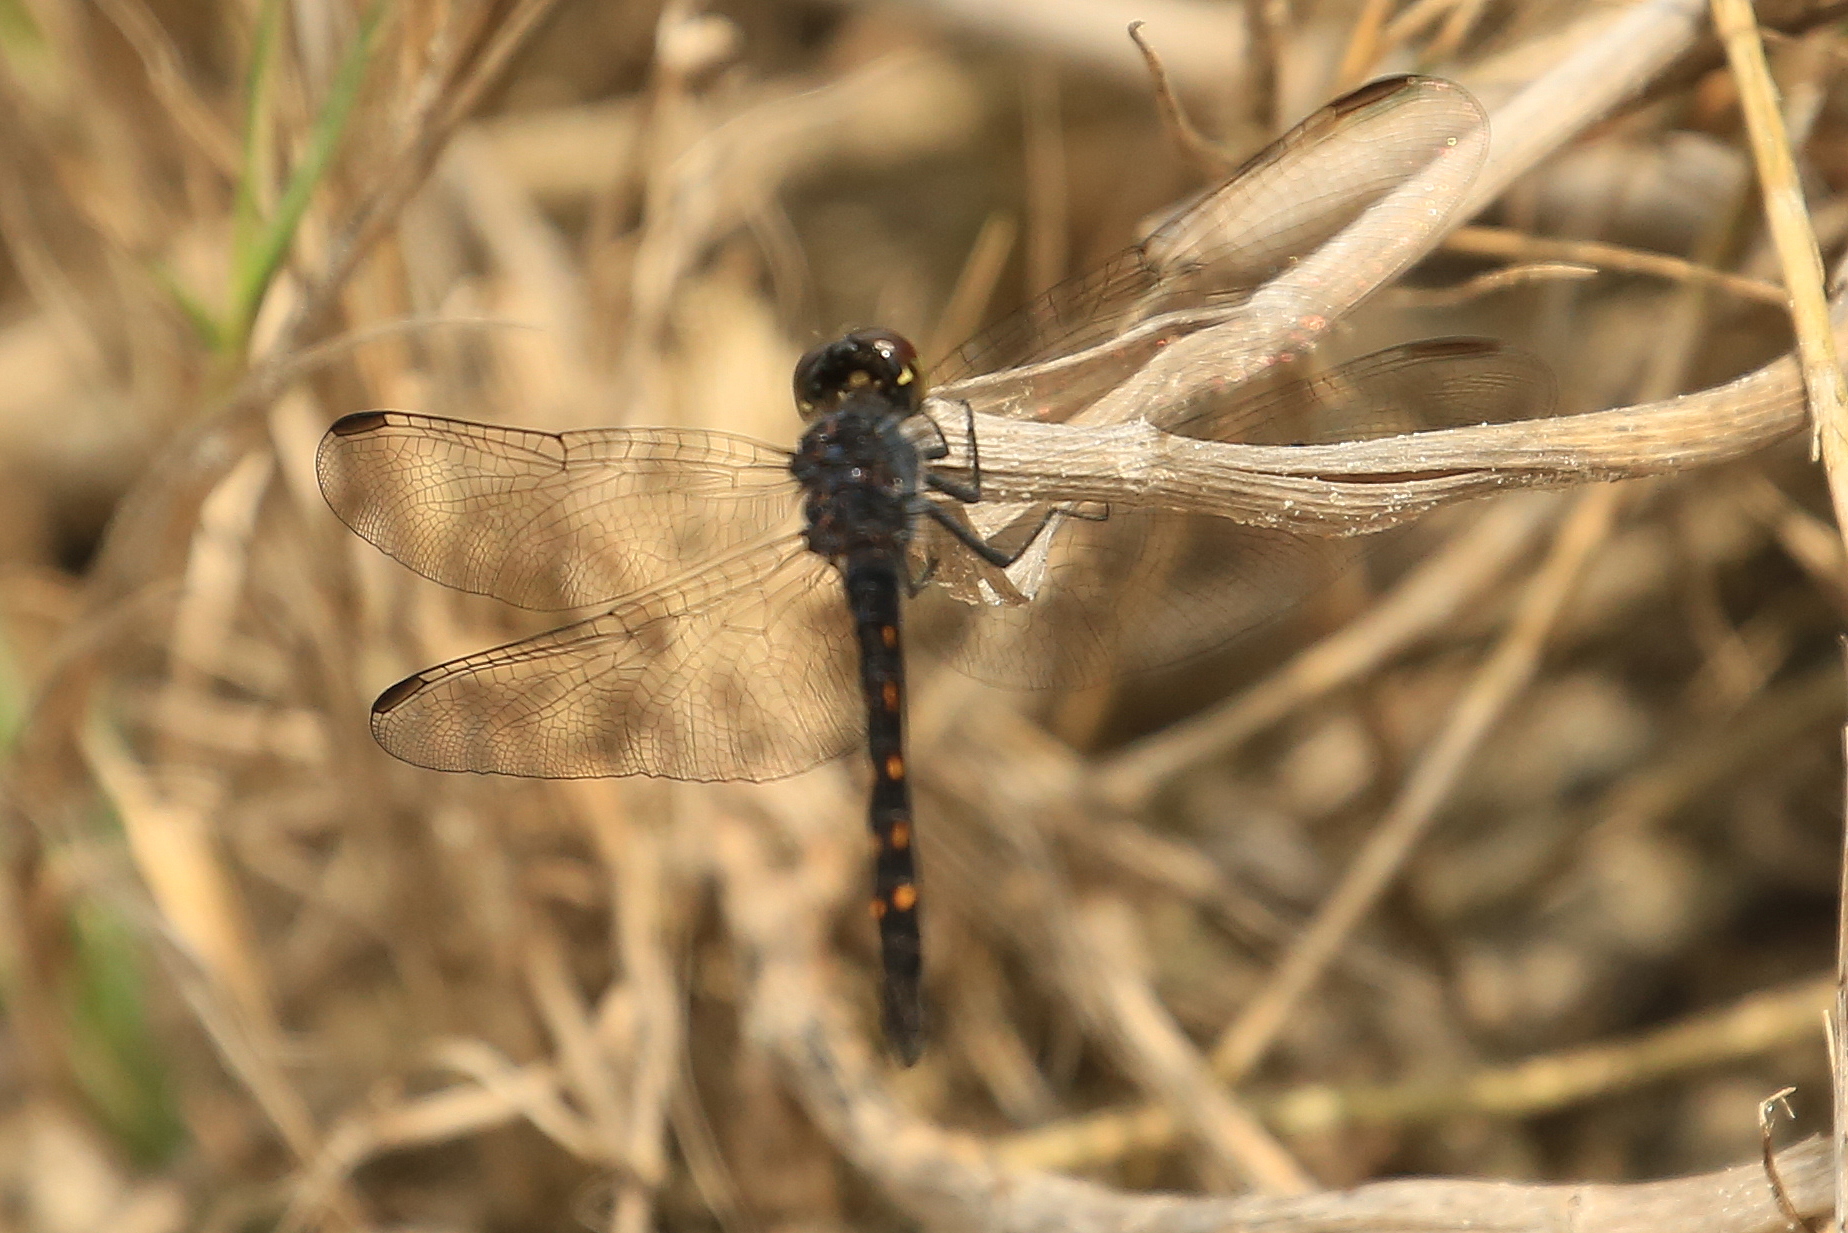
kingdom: Animalia
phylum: Arthropoda
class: Insecta
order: Odonata
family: Libellulidae
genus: Erythrodiplax
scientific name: Erythrodiplax berenice
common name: Seaside dragonlet
